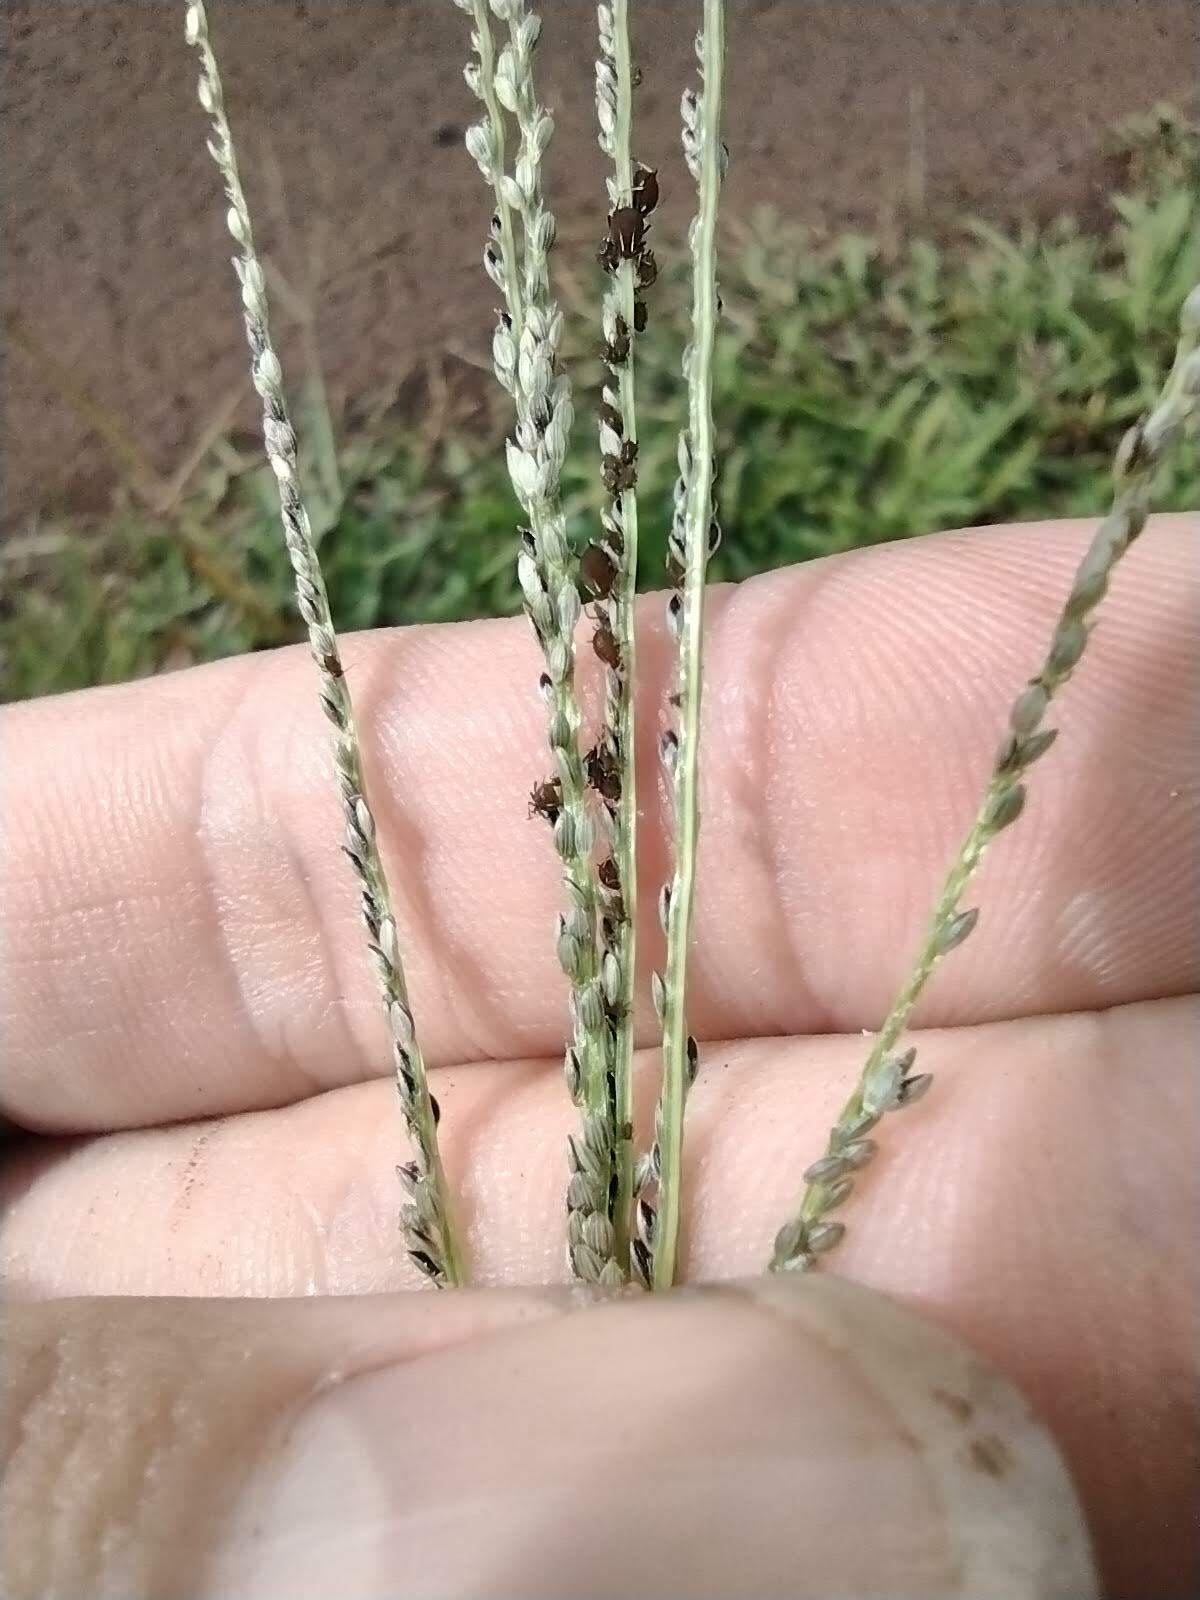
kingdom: Plantae
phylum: Tracheophyta
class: Liliopsida
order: Poales
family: Poaceae
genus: Digitaria
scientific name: Digitaria stricta
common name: Crabgrass
